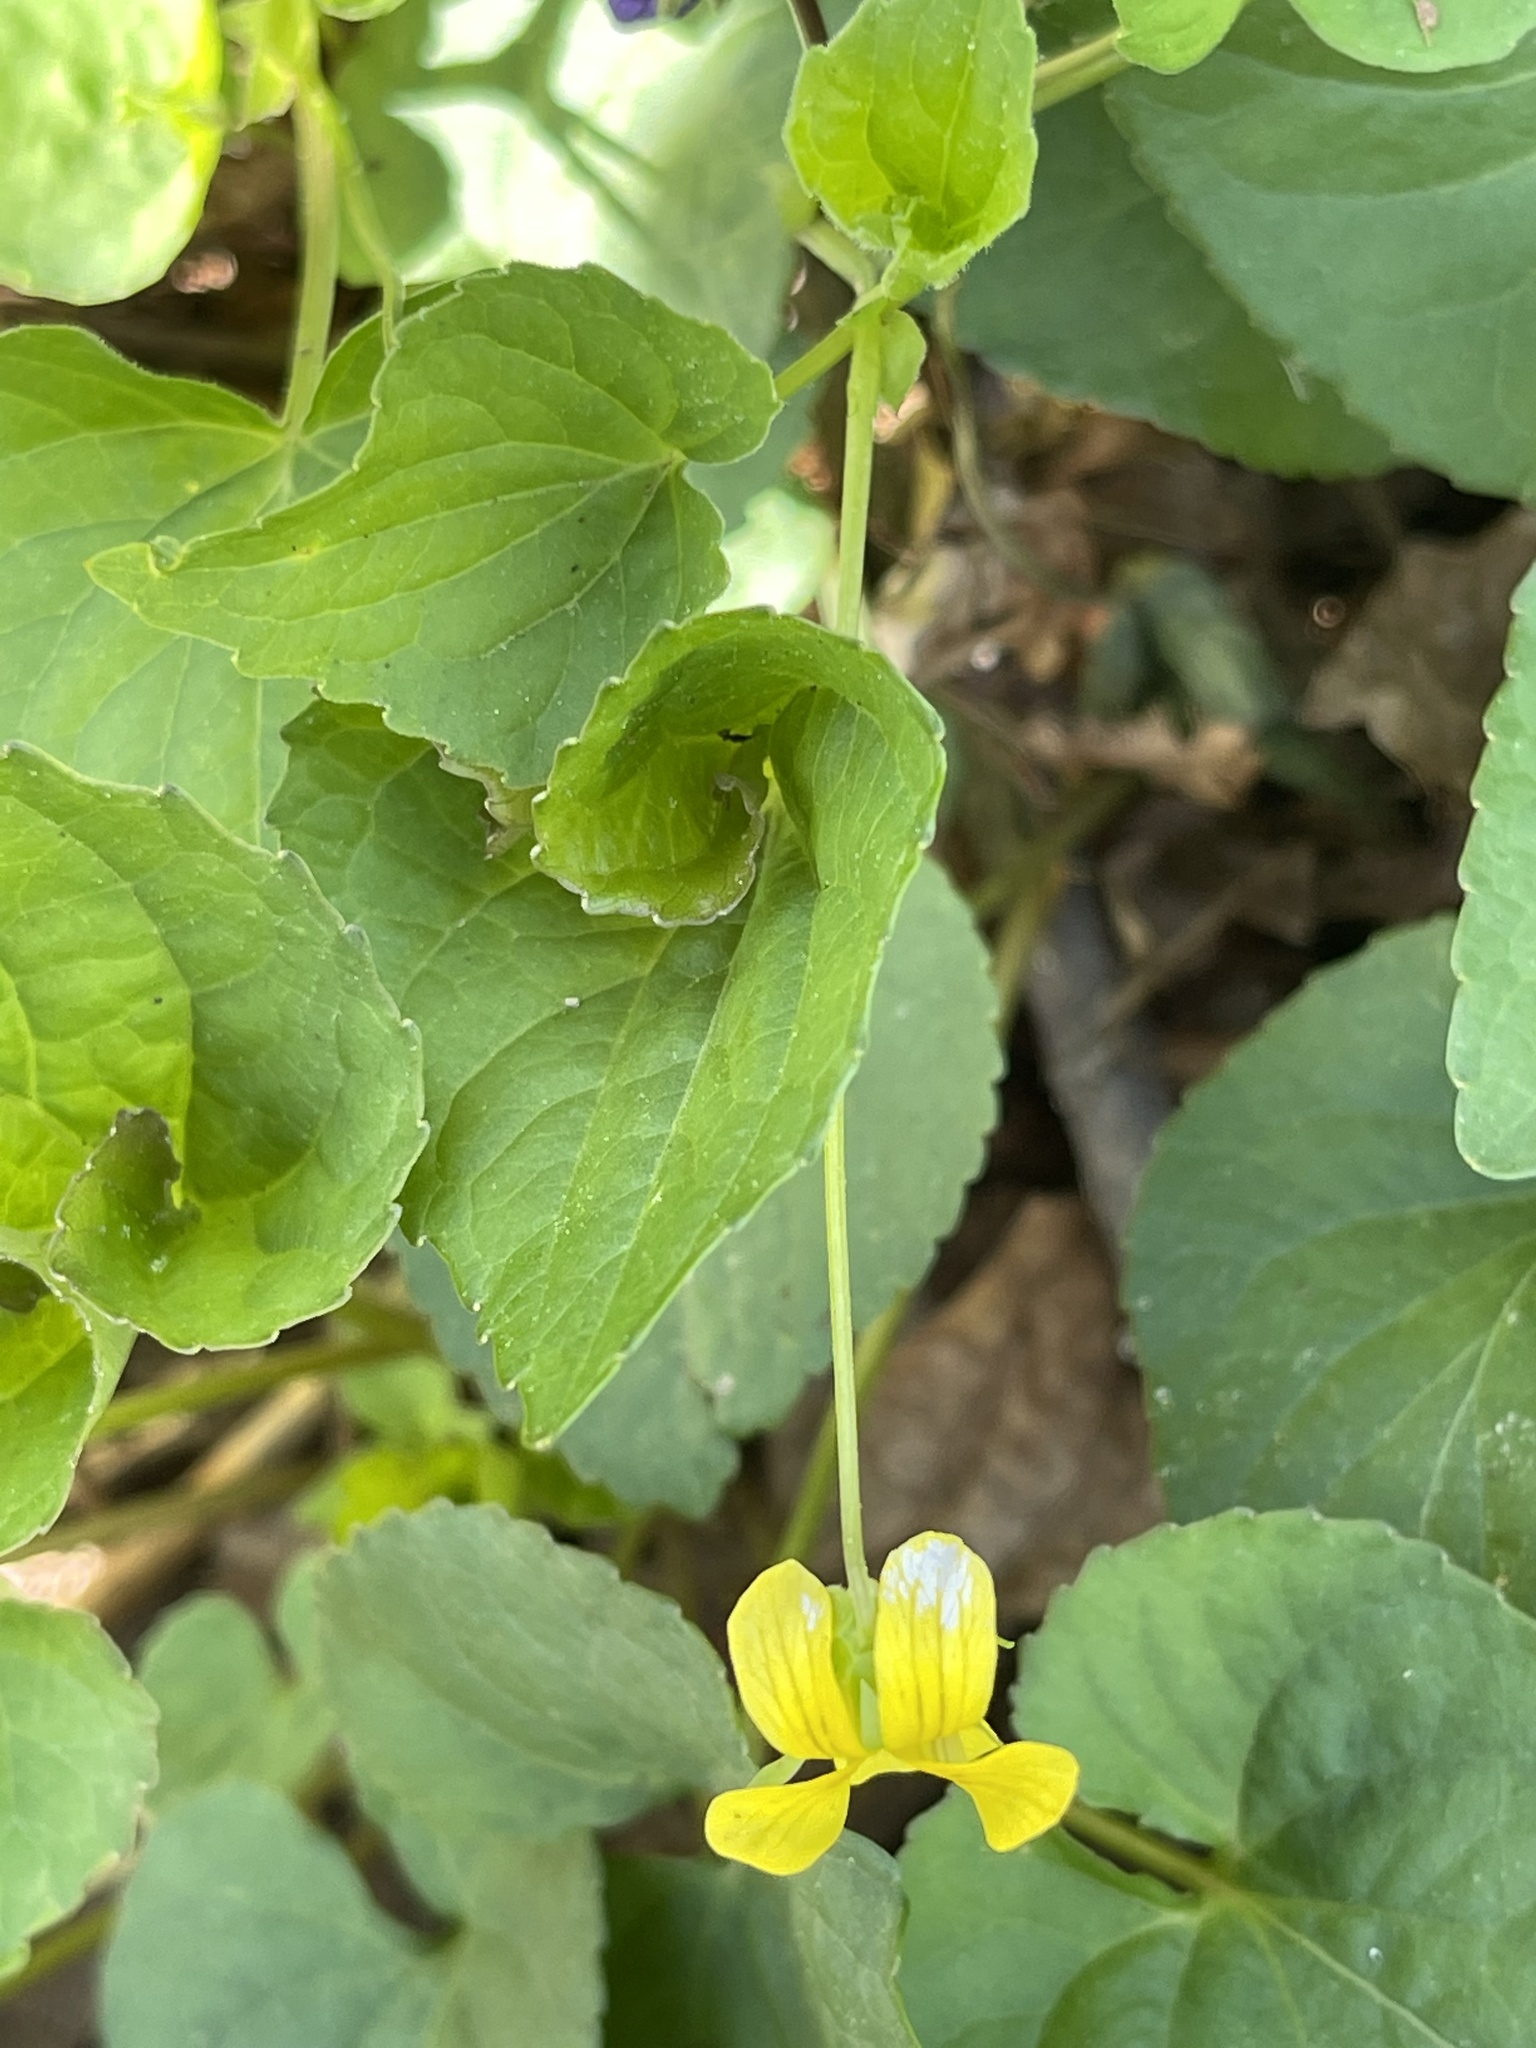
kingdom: Plantae
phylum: Tracheophyta
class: Magnoliopsida
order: Malpighiales
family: Violaceae
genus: Viola
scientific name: Viola eriocarpa
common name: Smooth yellow violet
